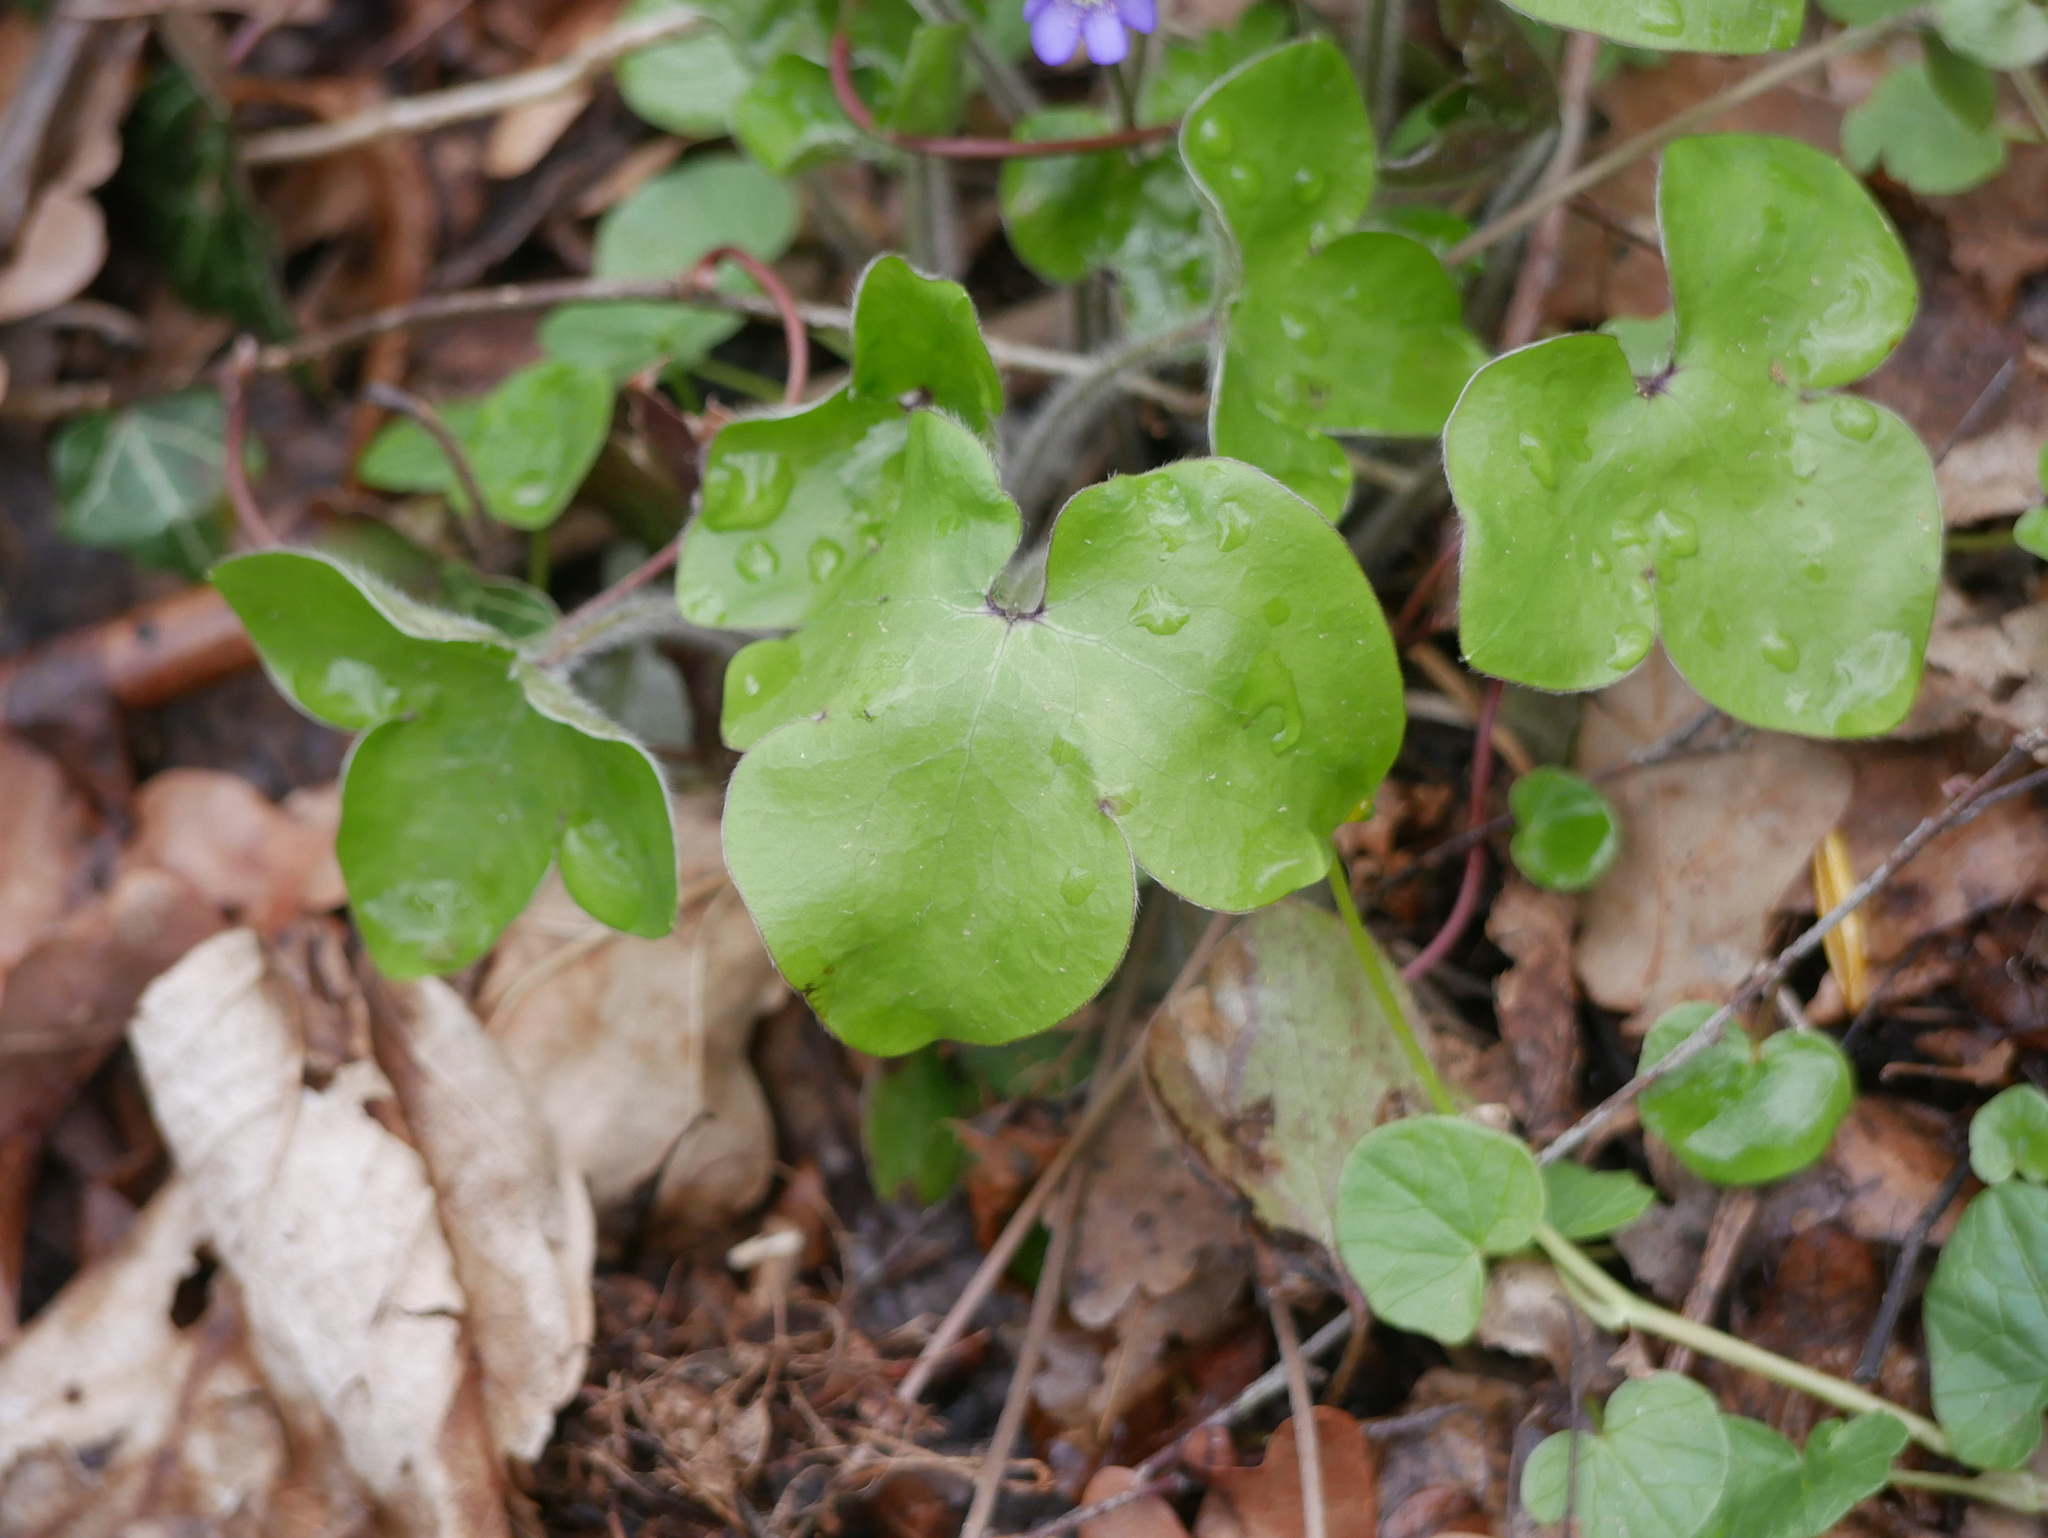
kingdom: Plantae
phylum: Tracheophyta
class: Magnoliopsida
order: Ranunculales
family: Ranunculaceae
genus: Hepatica
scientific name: Hepatica nobilis
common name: Liverleaf
